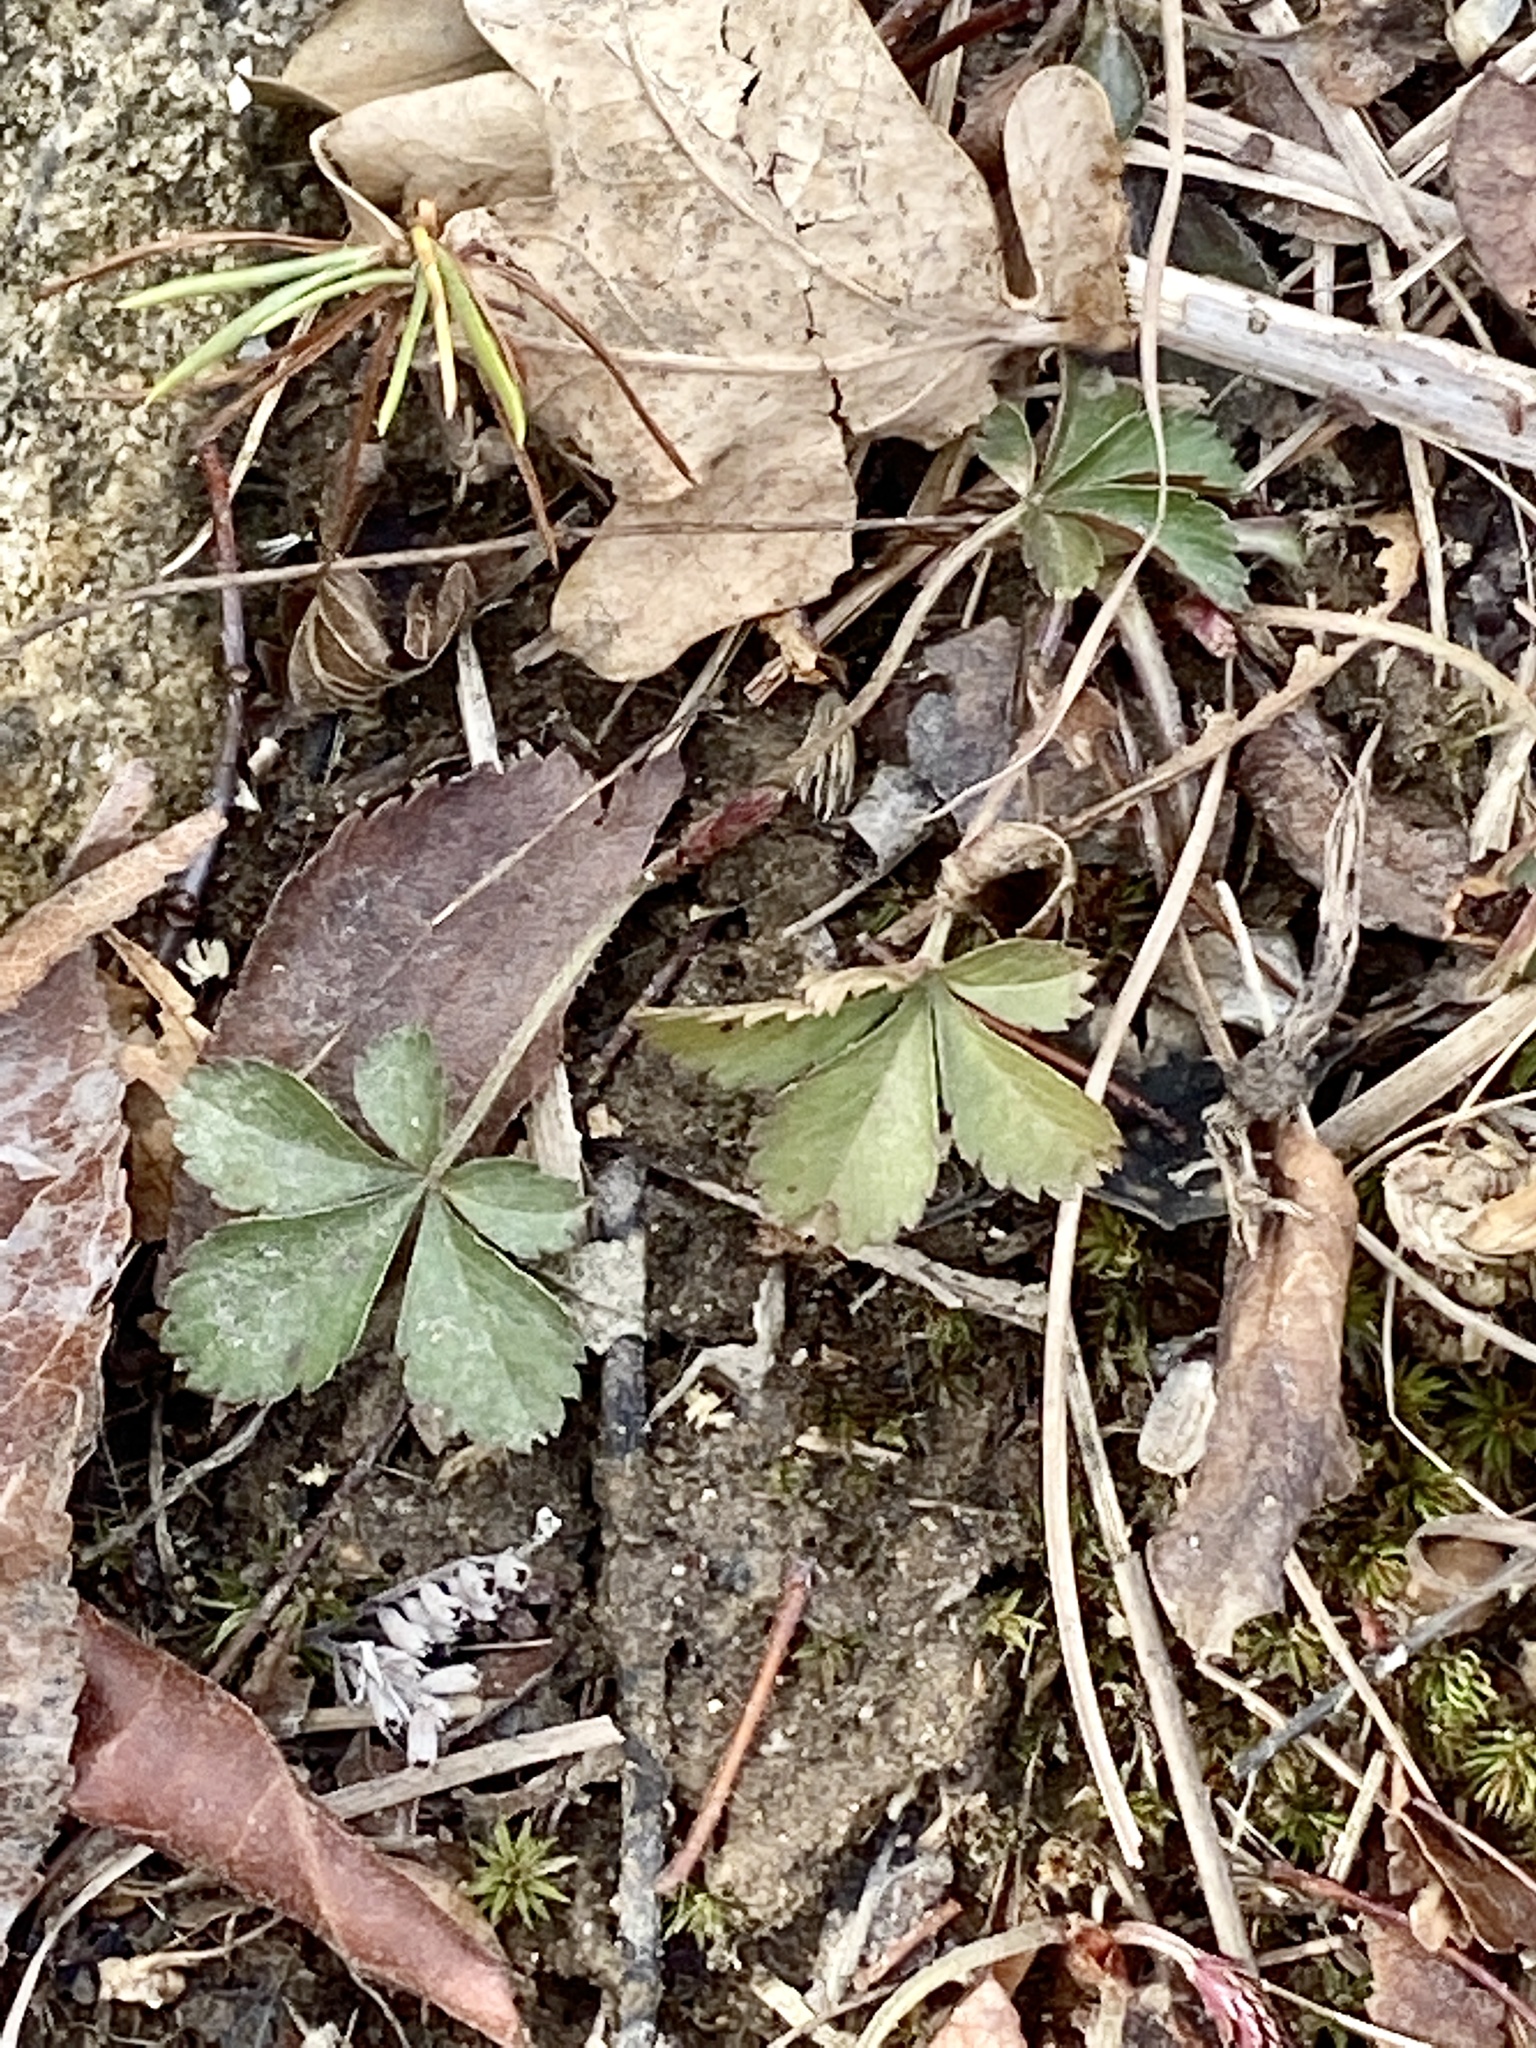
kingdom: Plantae
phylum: Tracheophyta
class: Magnoliopsida
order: Rosales
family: Rosaceae
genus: Potentilla
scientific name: Potentilla canadensis
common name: Canada cinquefoil
